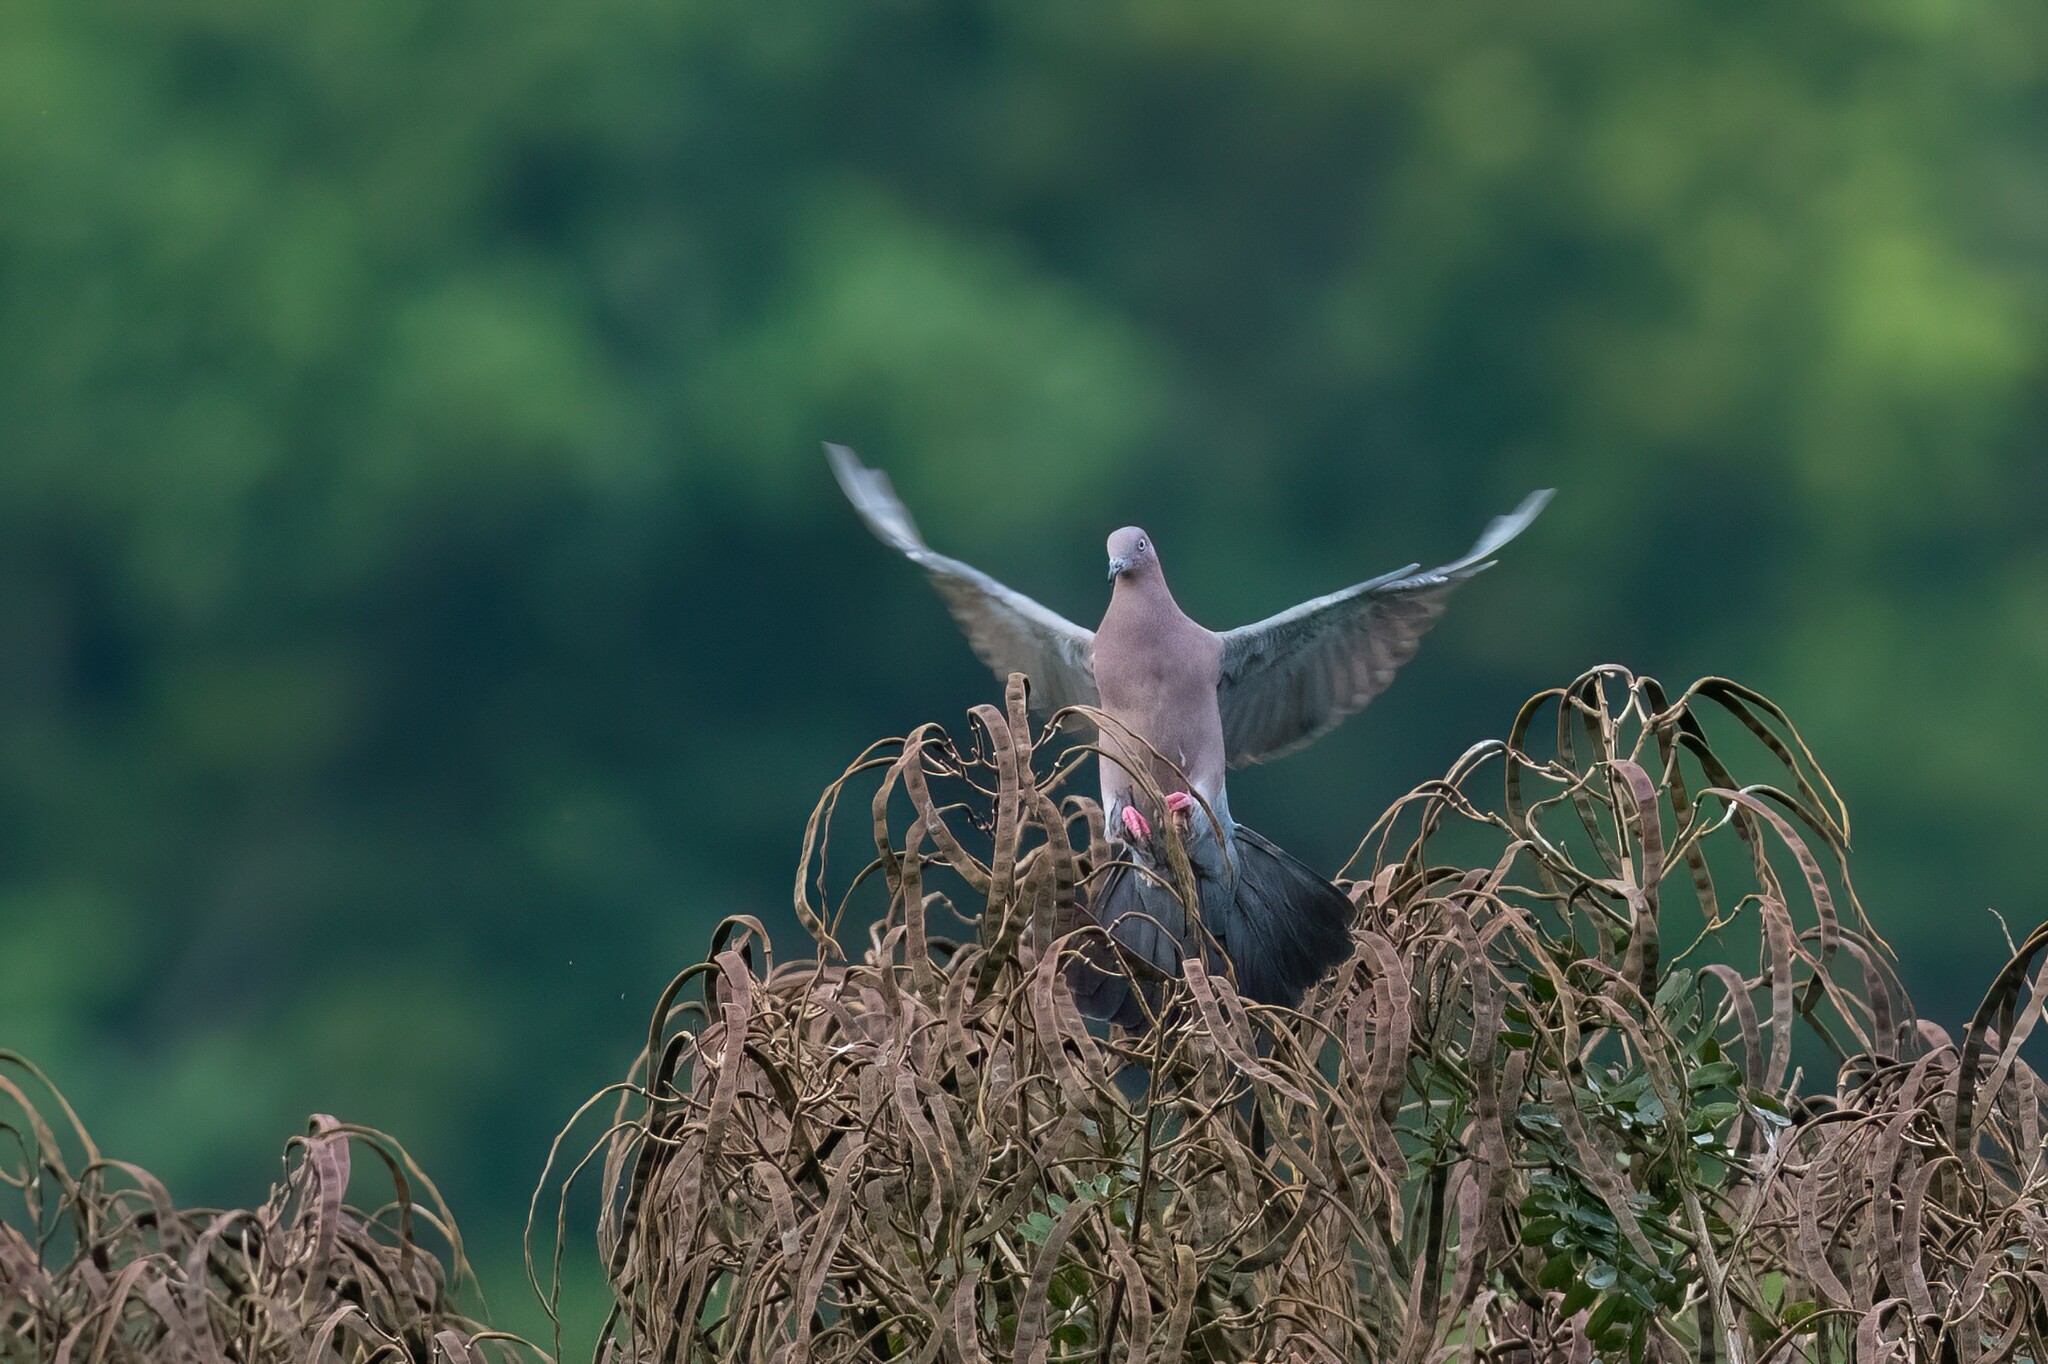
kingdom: Animalia
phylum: Chordata
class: Aves
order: Columbiformes
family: Columbidae
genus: Patagioenas
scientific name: Patagioenas inornata
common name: Plain pigeon
